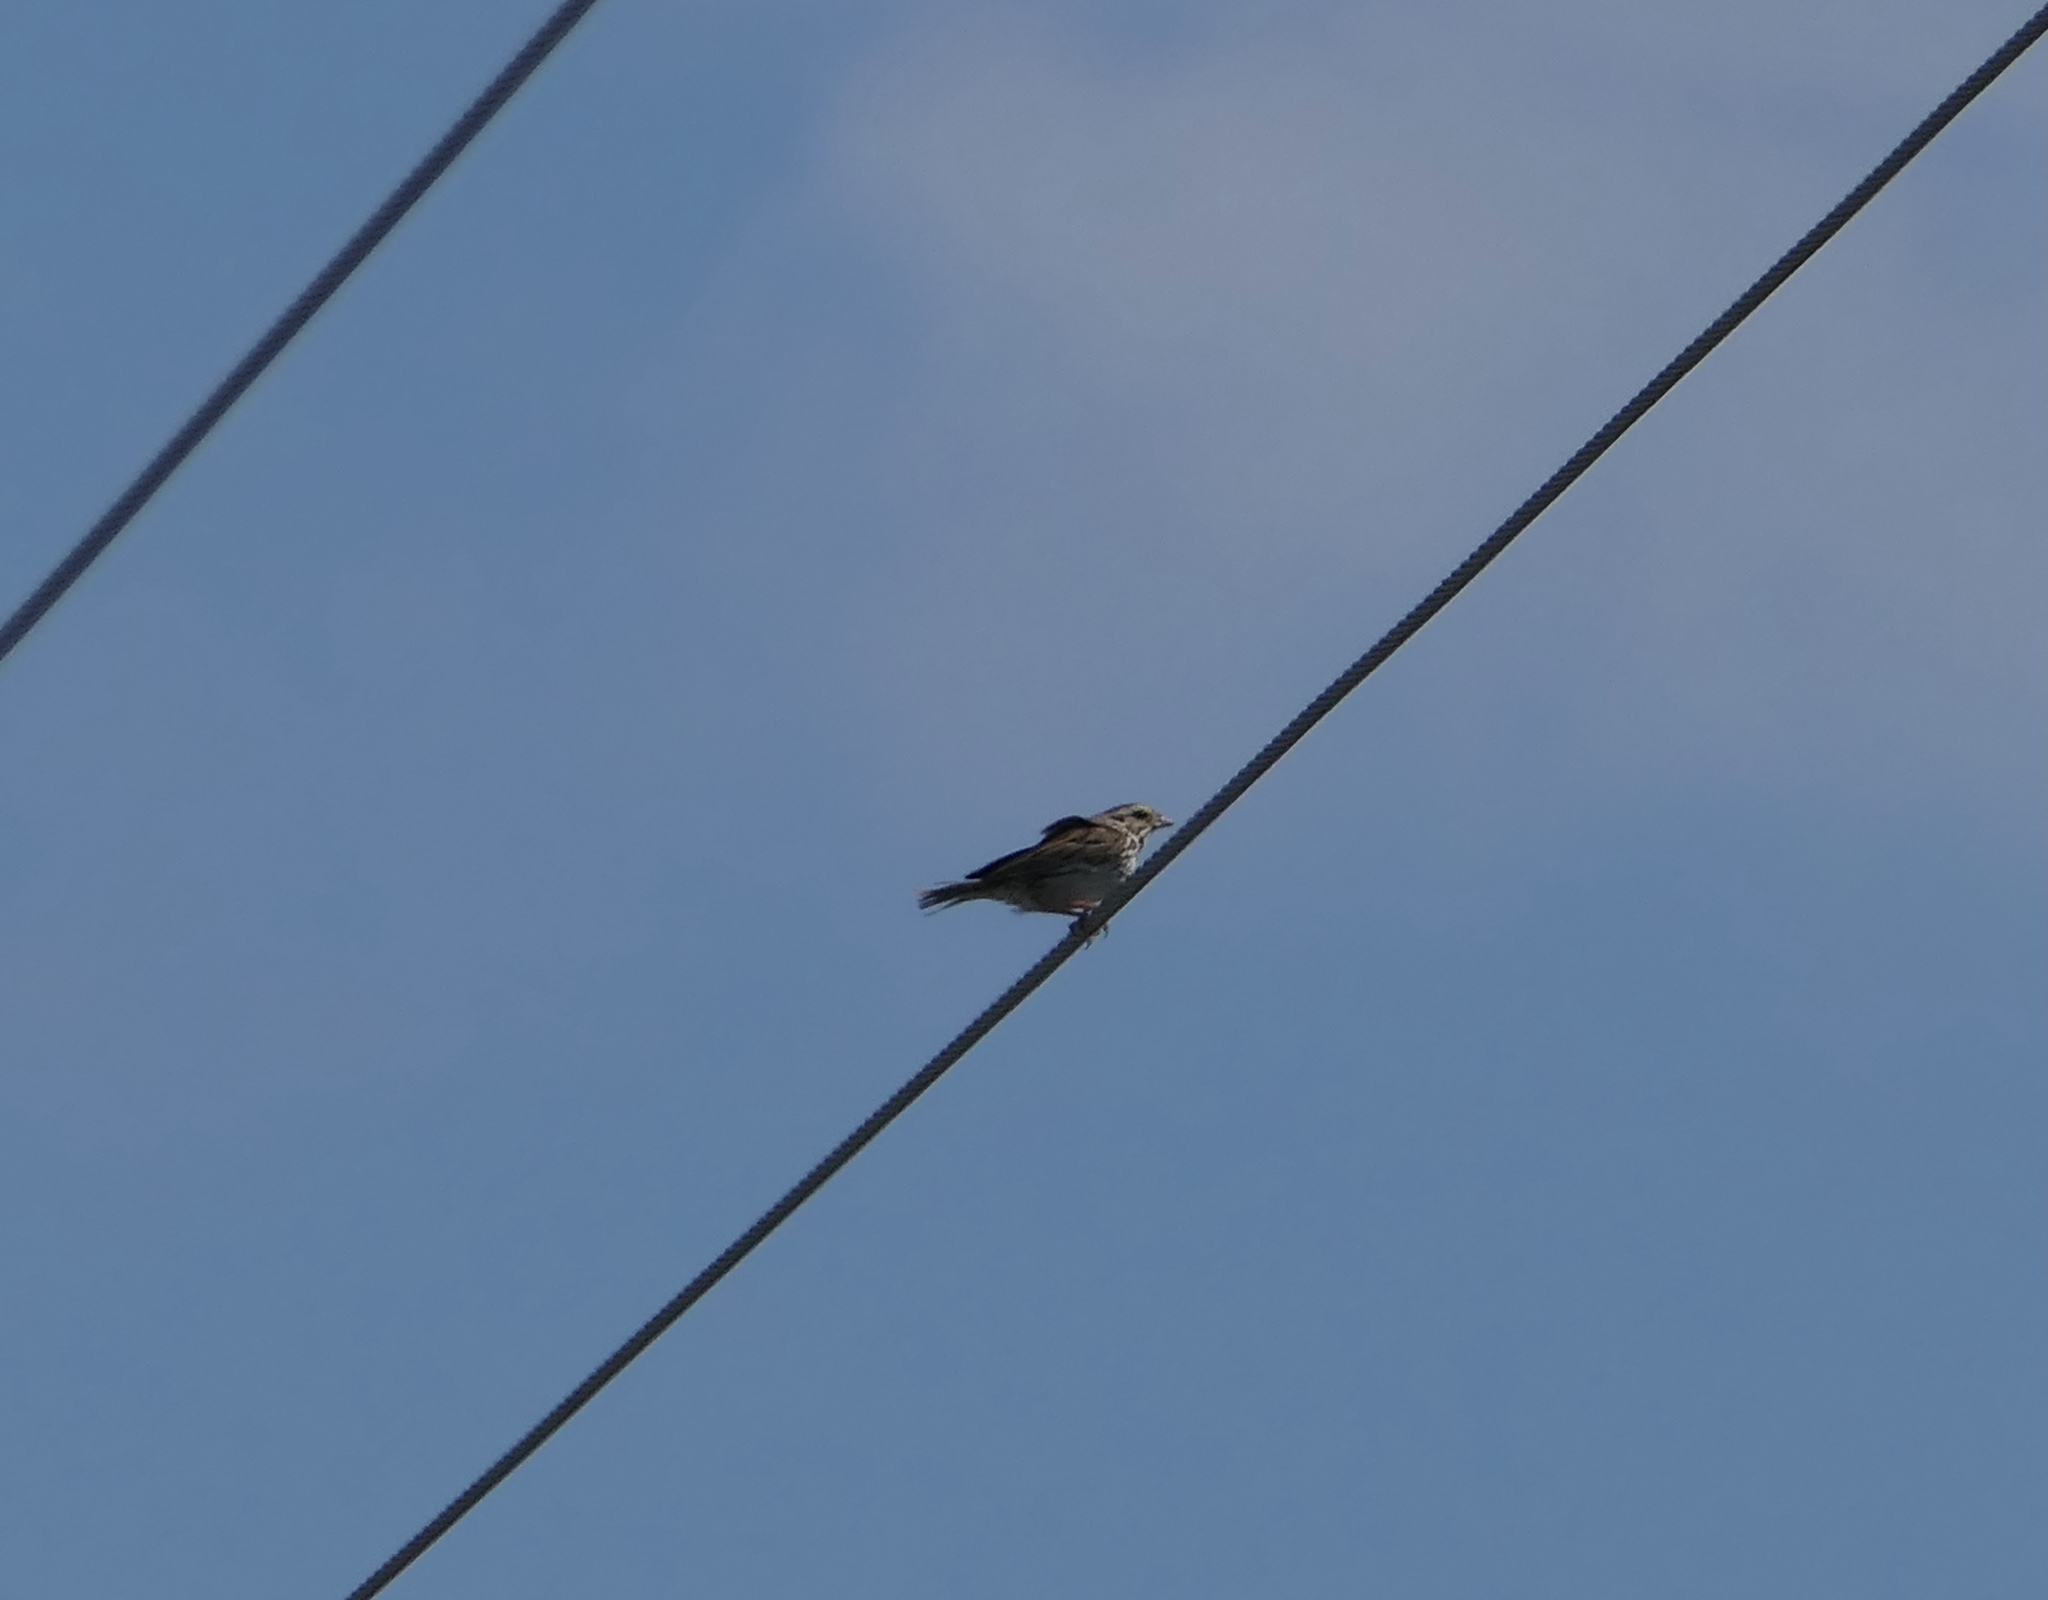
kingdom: Animalia
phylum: Chordata
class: Aves
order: Passeriformes
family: Passerellidae
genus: Melospiza
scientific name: Melospiza melodia
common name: Song sparrow
